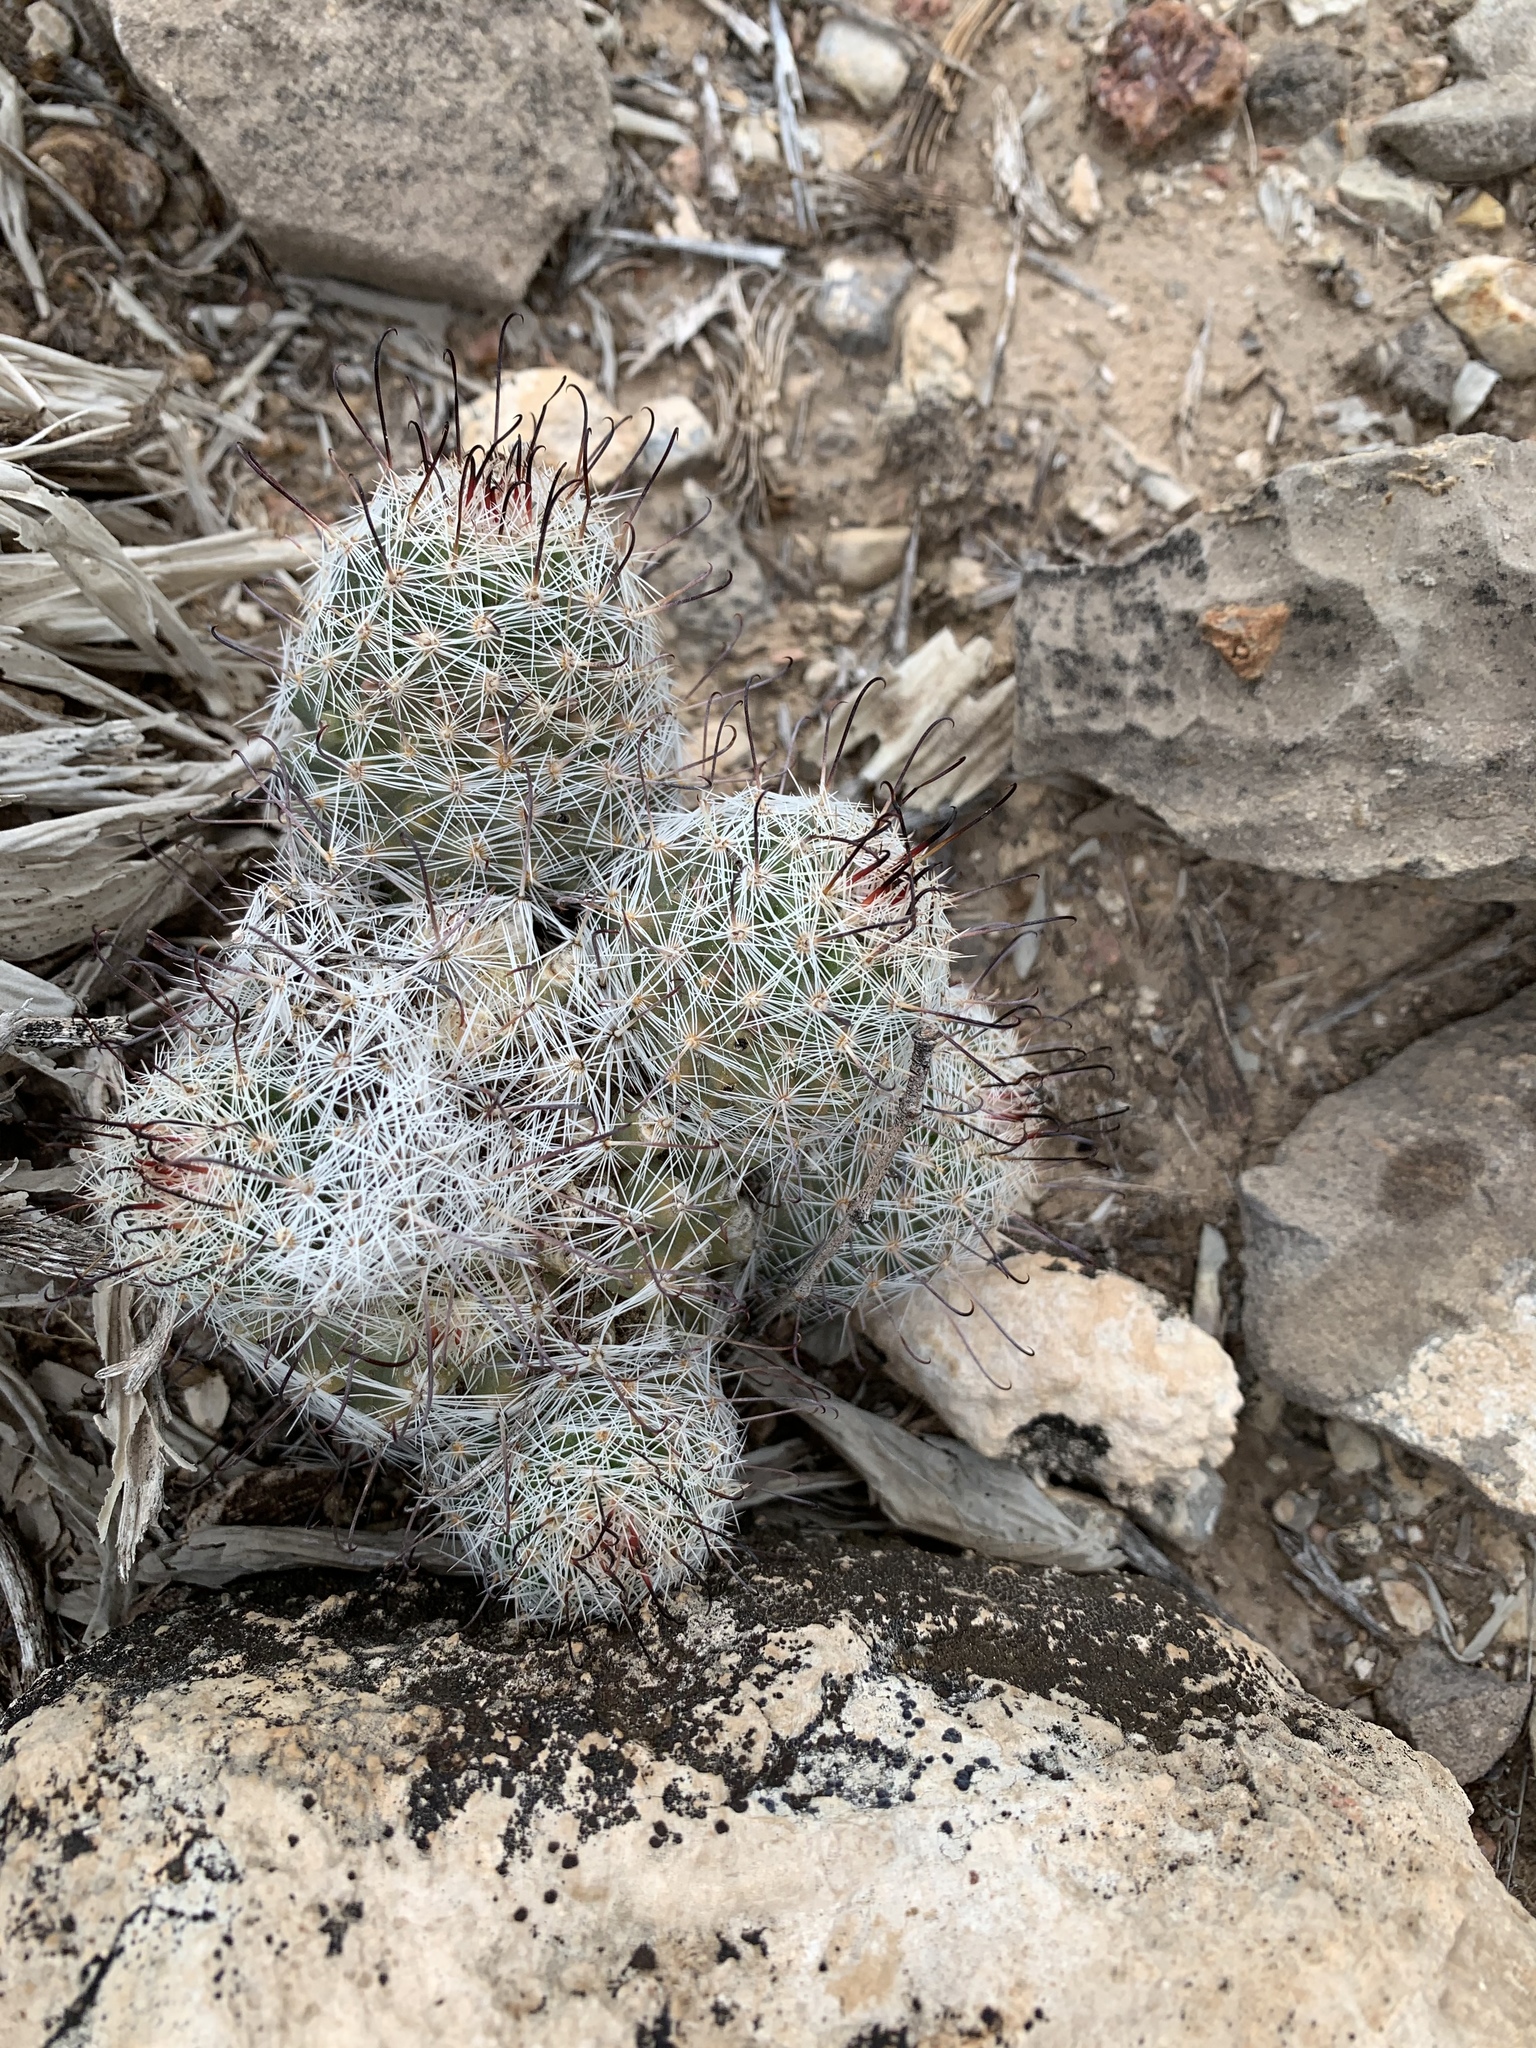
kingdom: Plantae
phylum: Tracheophyta
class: Magnoliopsida
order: Caryophyllales
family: Cactaceae
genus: Cochemiea
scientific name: Cochemiea grahamii
